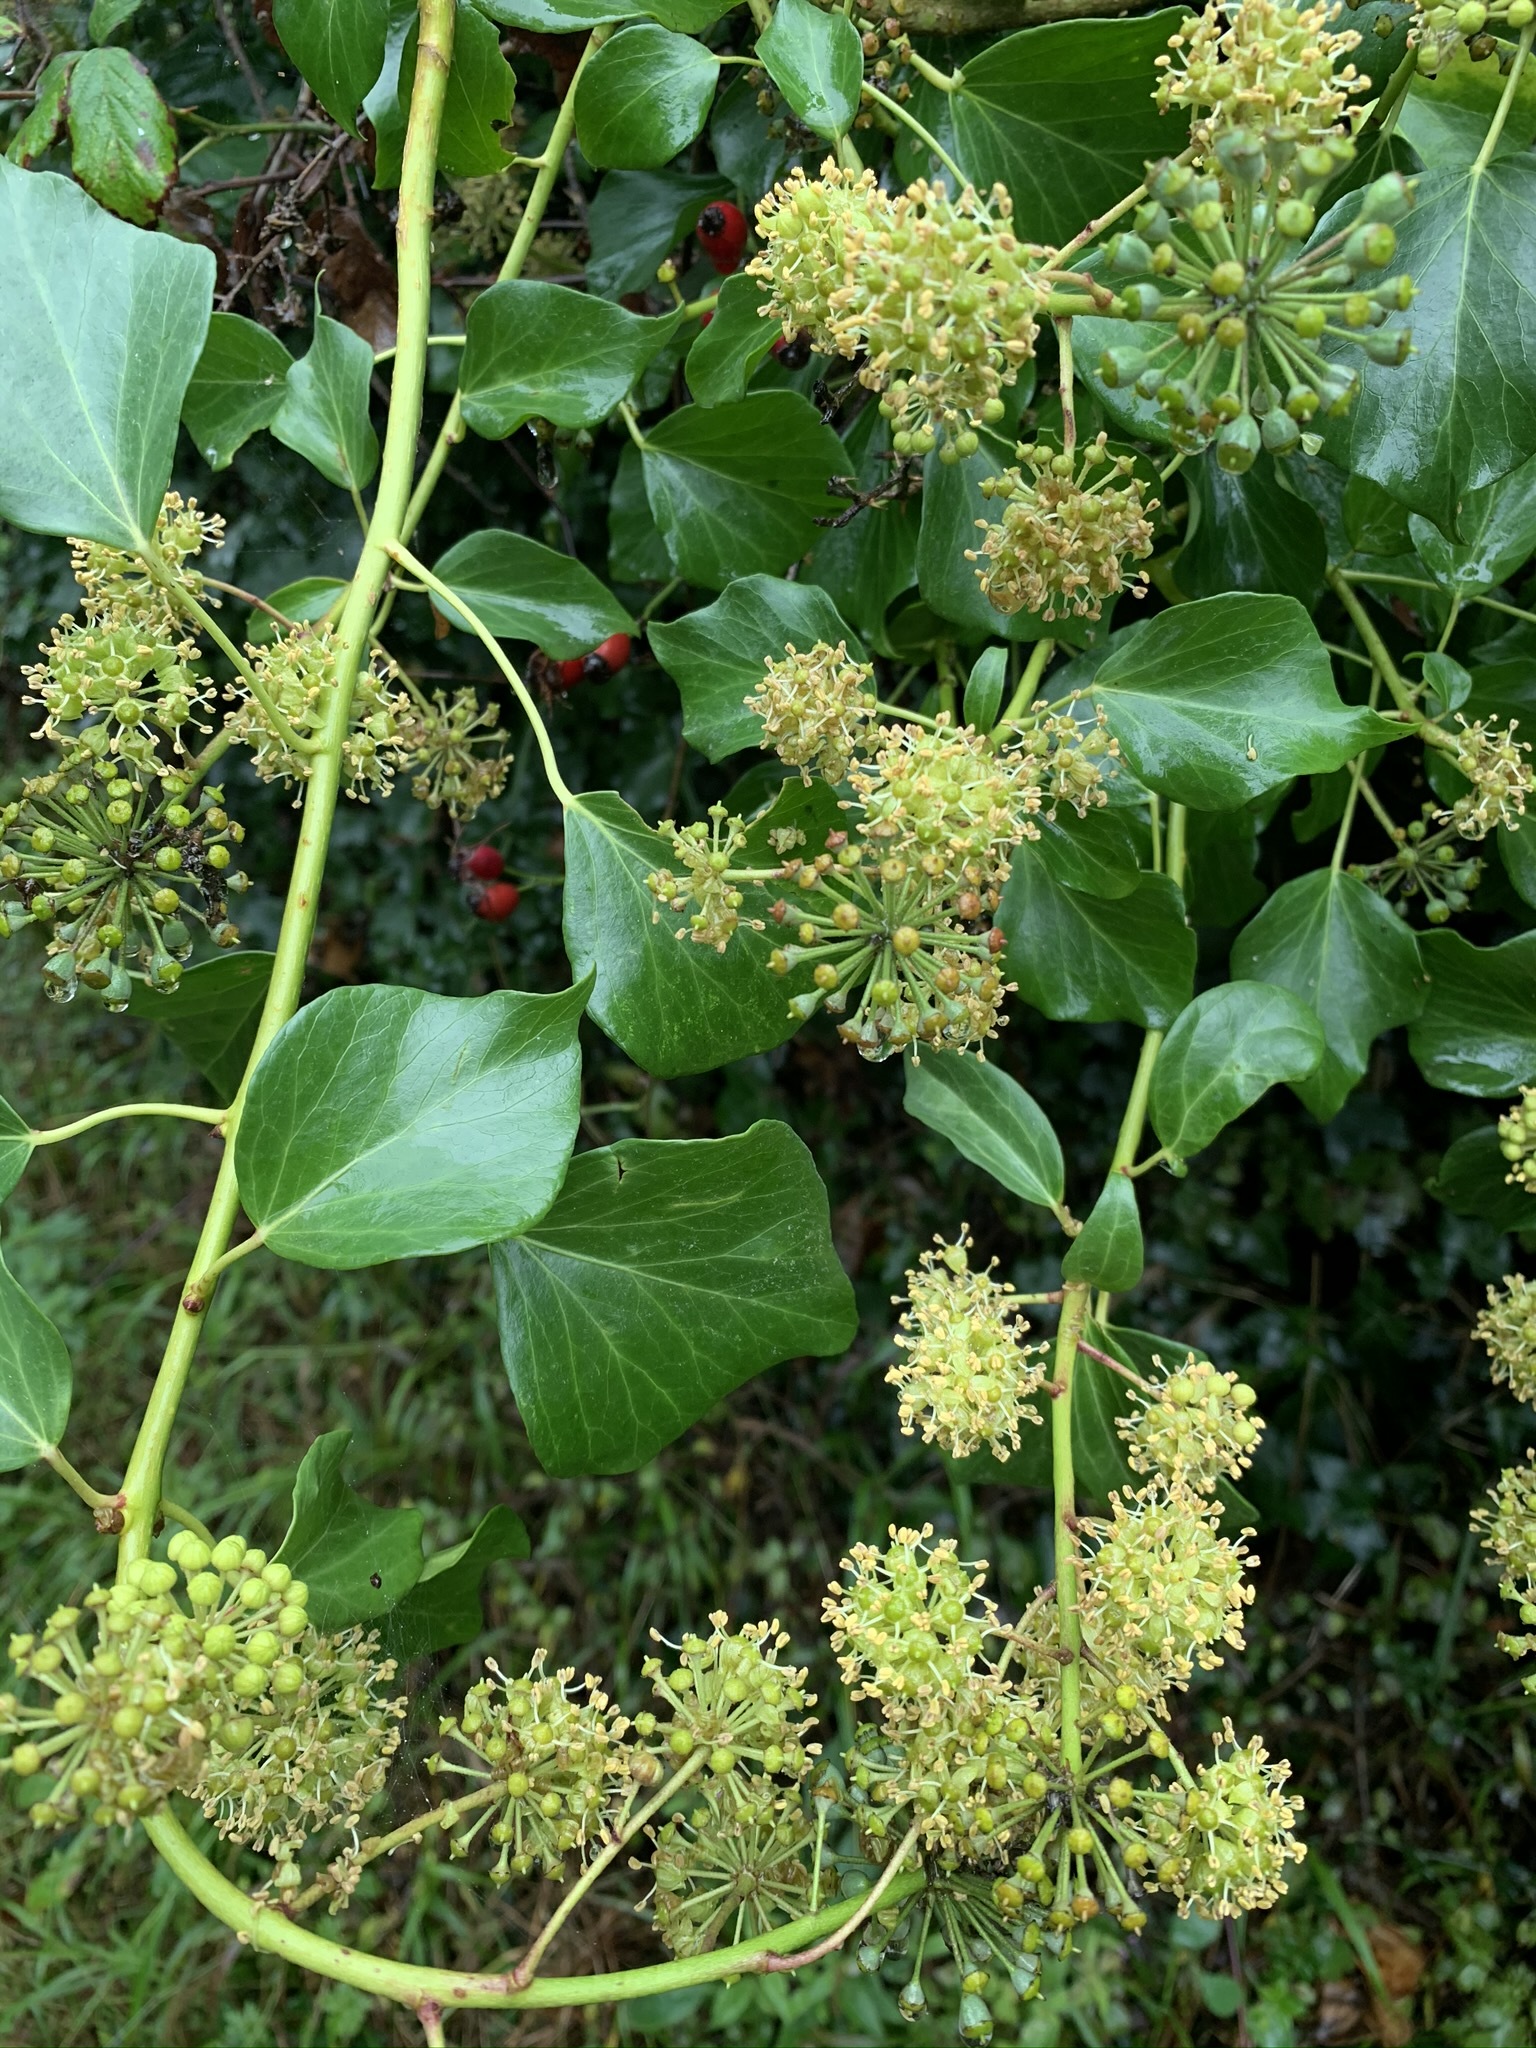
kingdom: Plantae
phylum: Tracheophyta
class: Magnoliopsida
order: Apiales
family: Araliaceae
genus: Hedera
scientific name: Hedera helix
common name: Ivy
